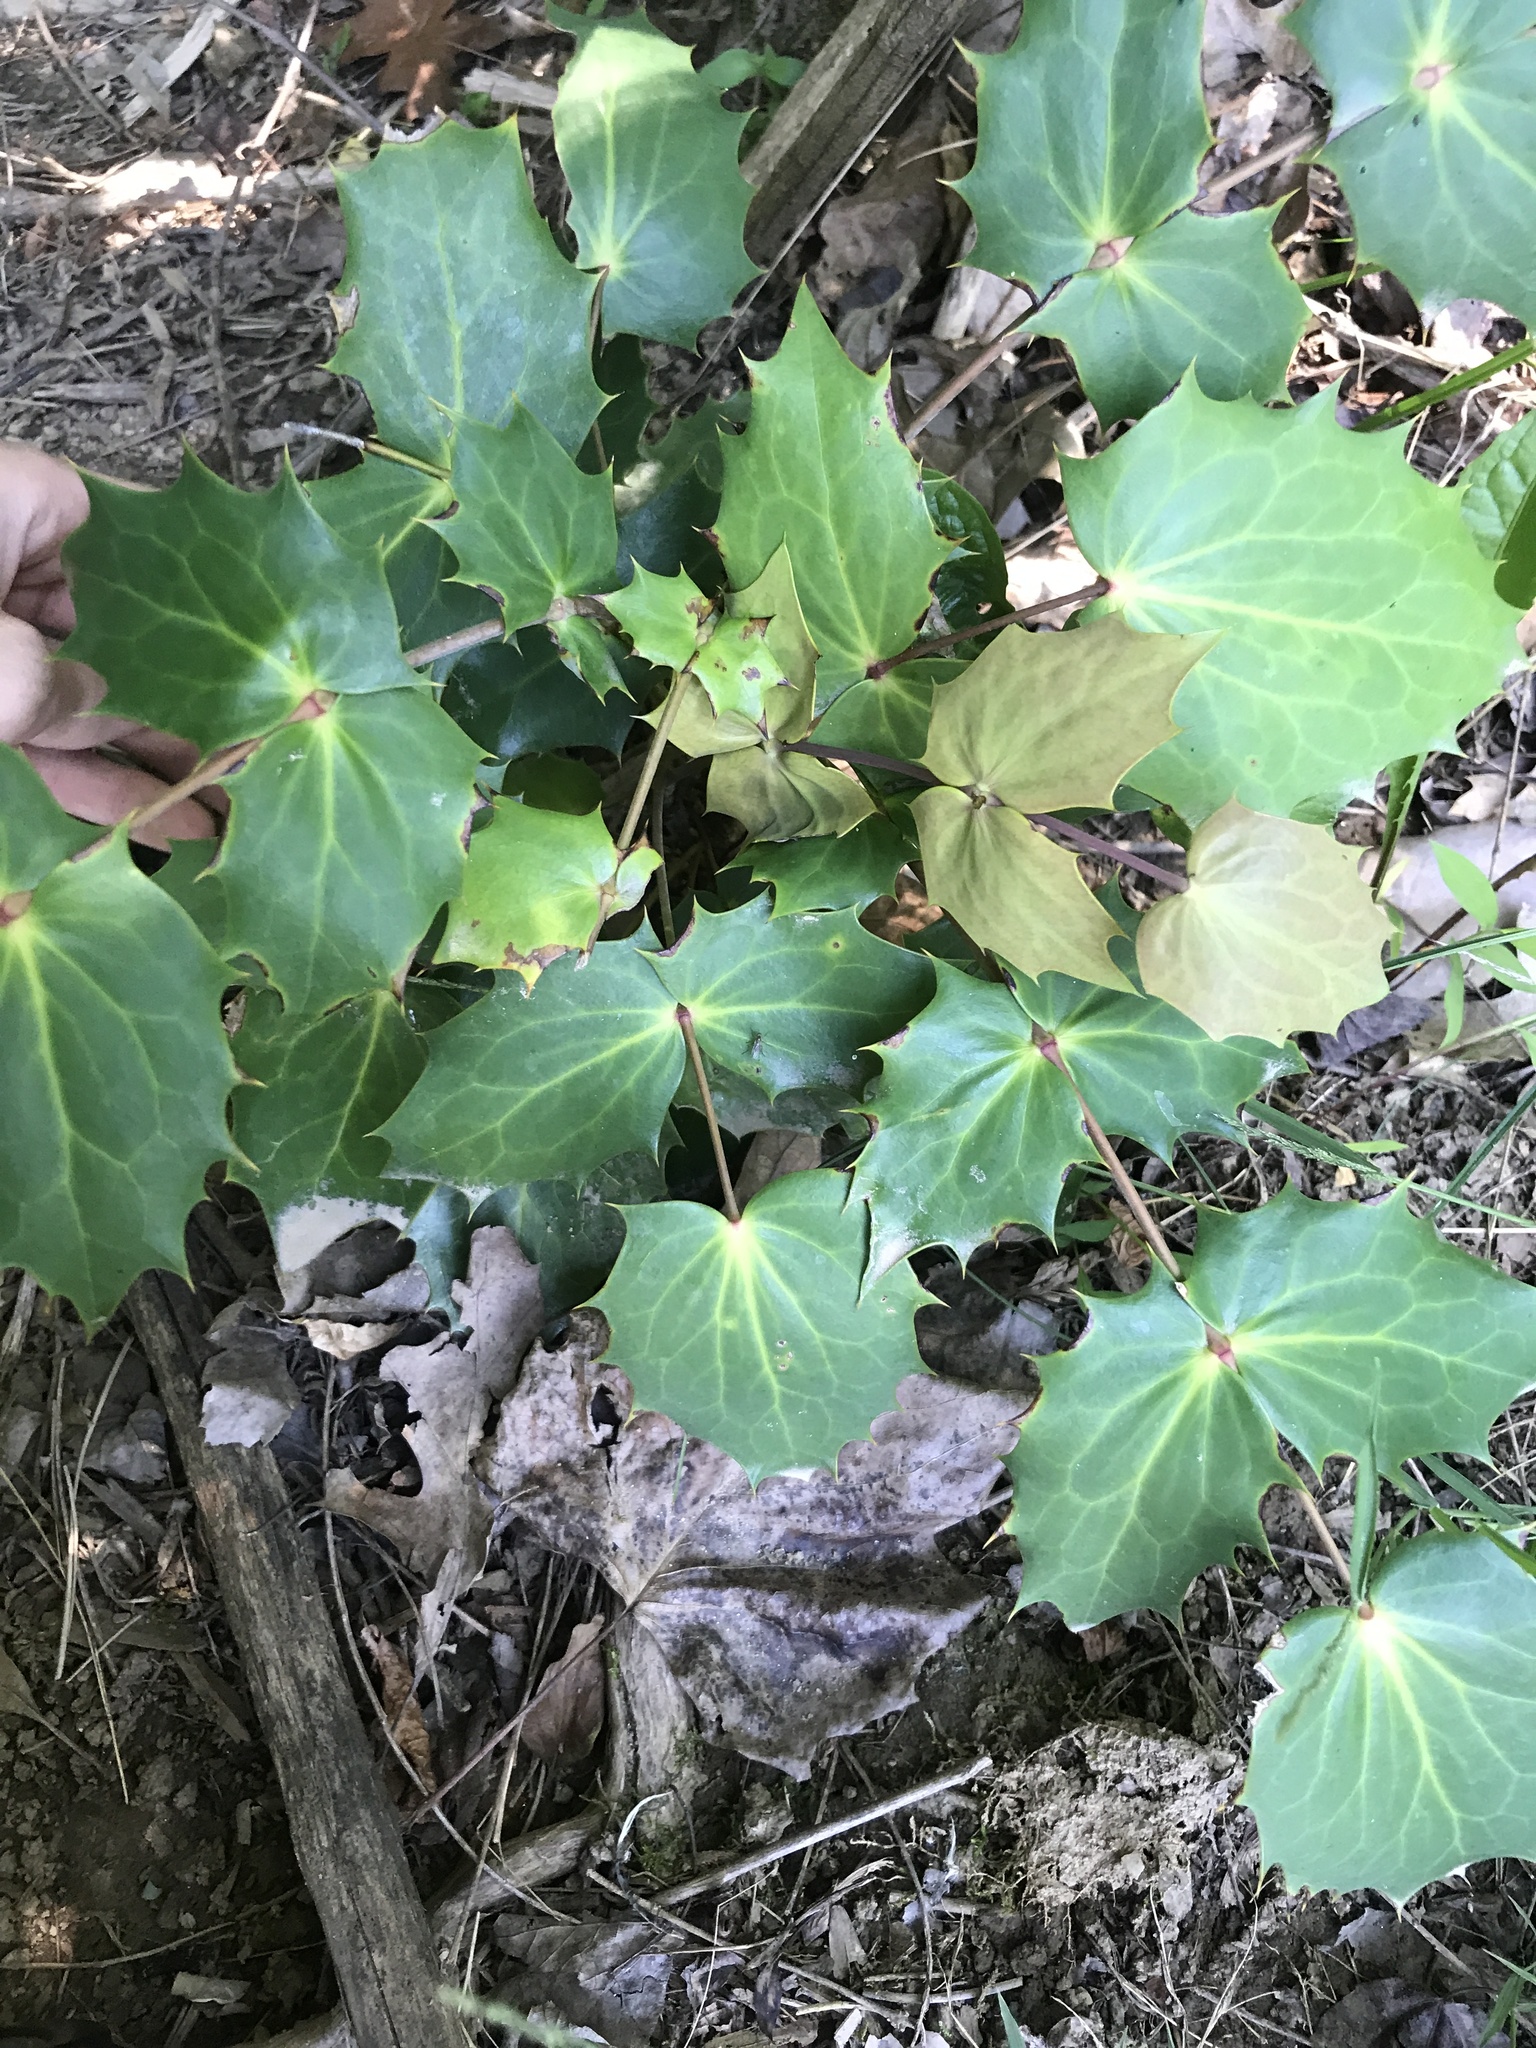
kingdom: Plantae
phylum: Tracheophyta
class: Magnoliopsida
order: Ranunculales
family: Berberidaceae
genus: Mahonia
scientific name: Mahonia bealei
